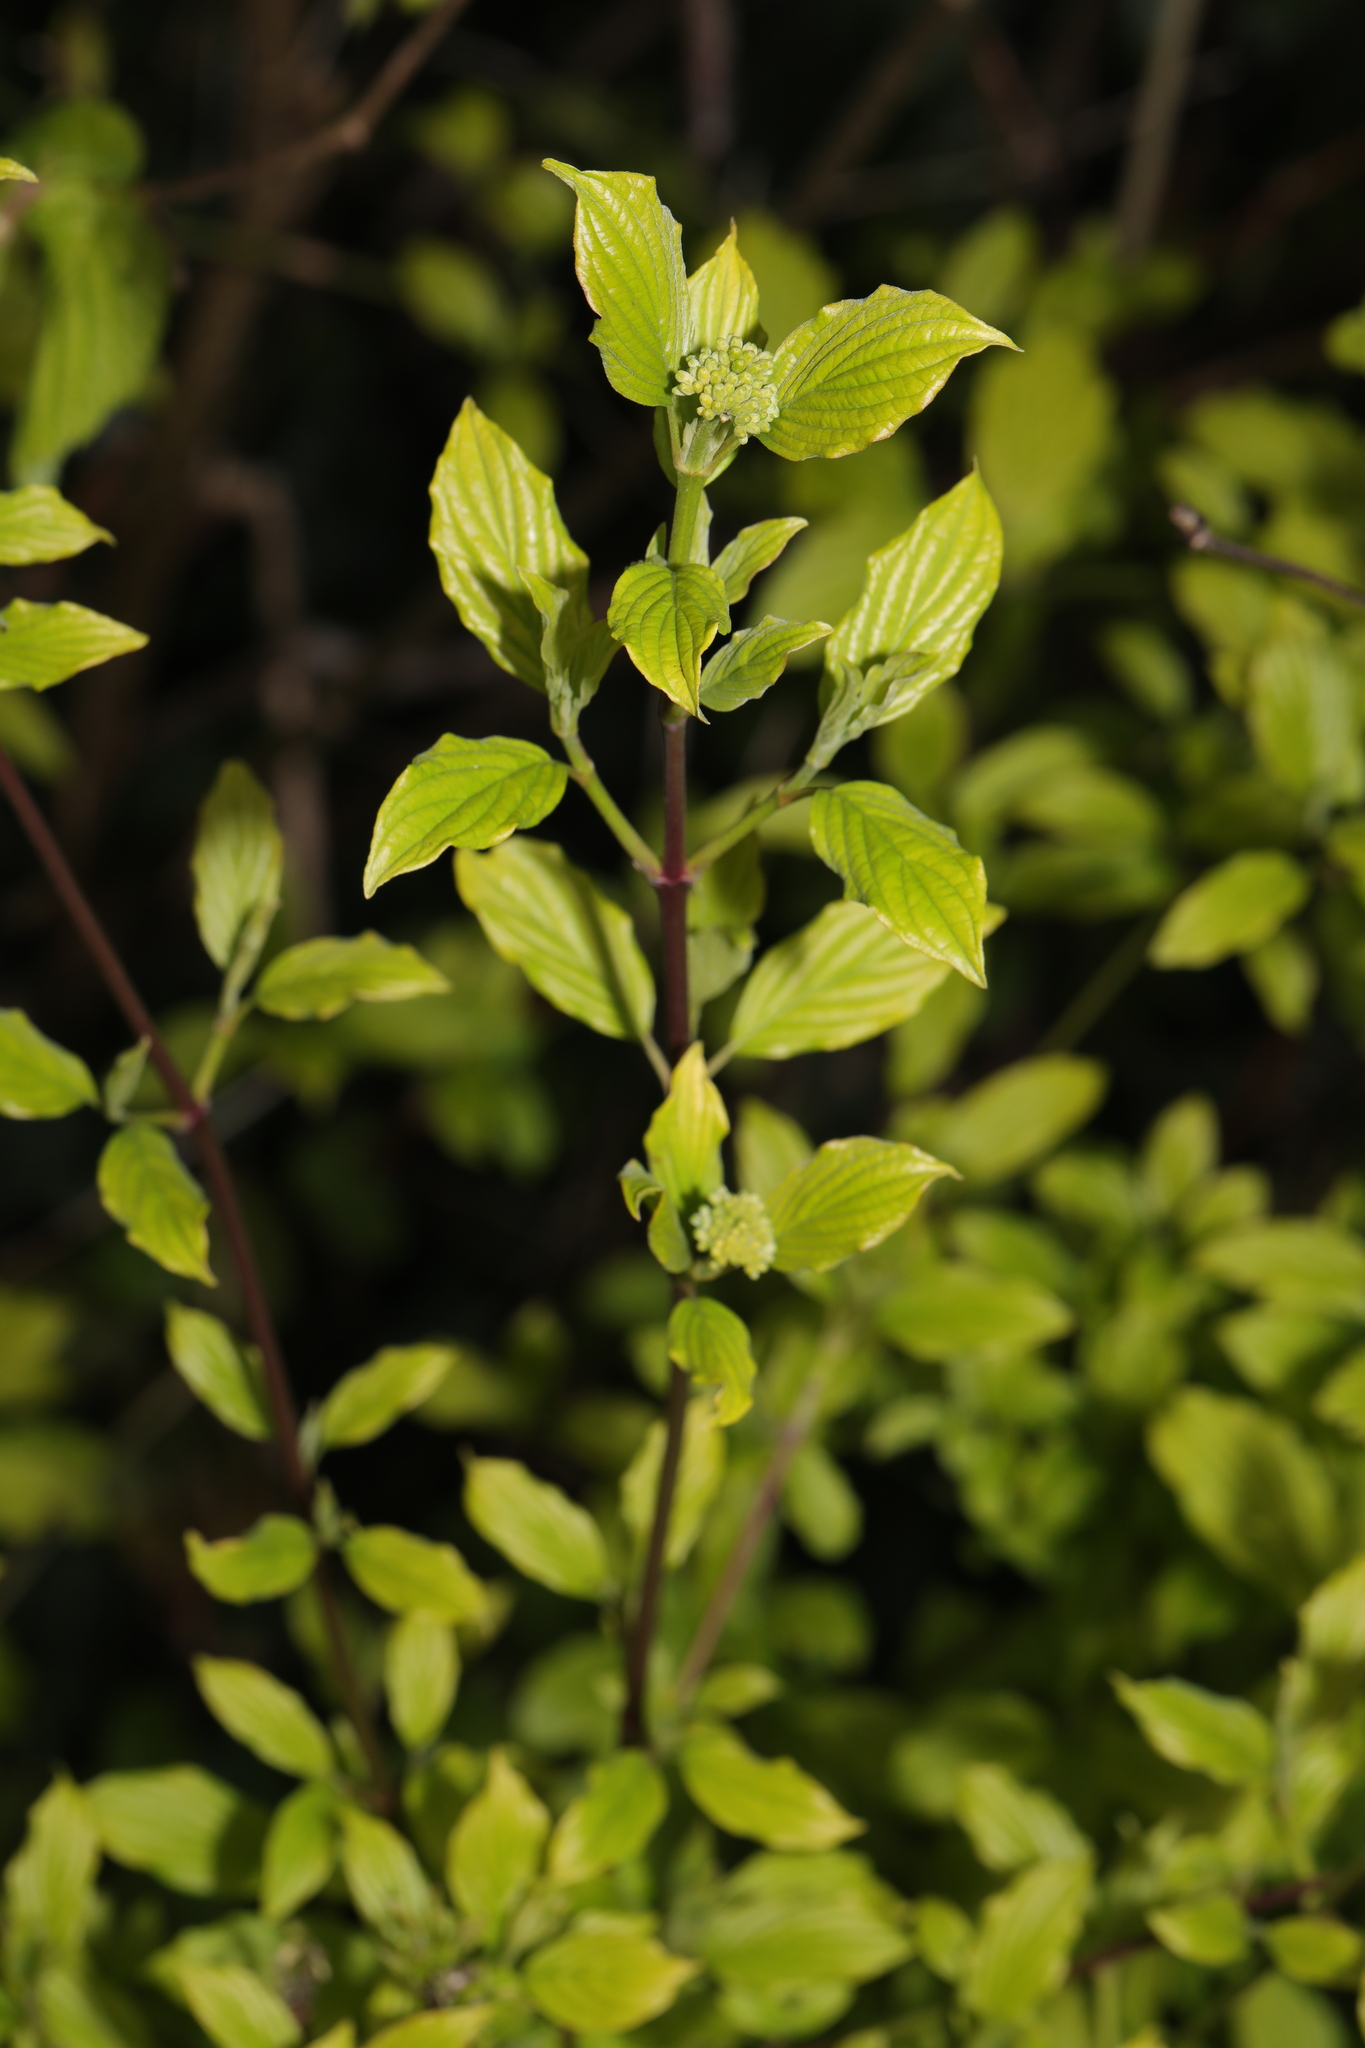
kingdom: Plantae
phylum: Tracheophyta
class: Magnoliopsida
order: Cornales
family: Cornaceae
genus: Cornus
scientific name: Cornus sanguinea
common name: Dogwood
